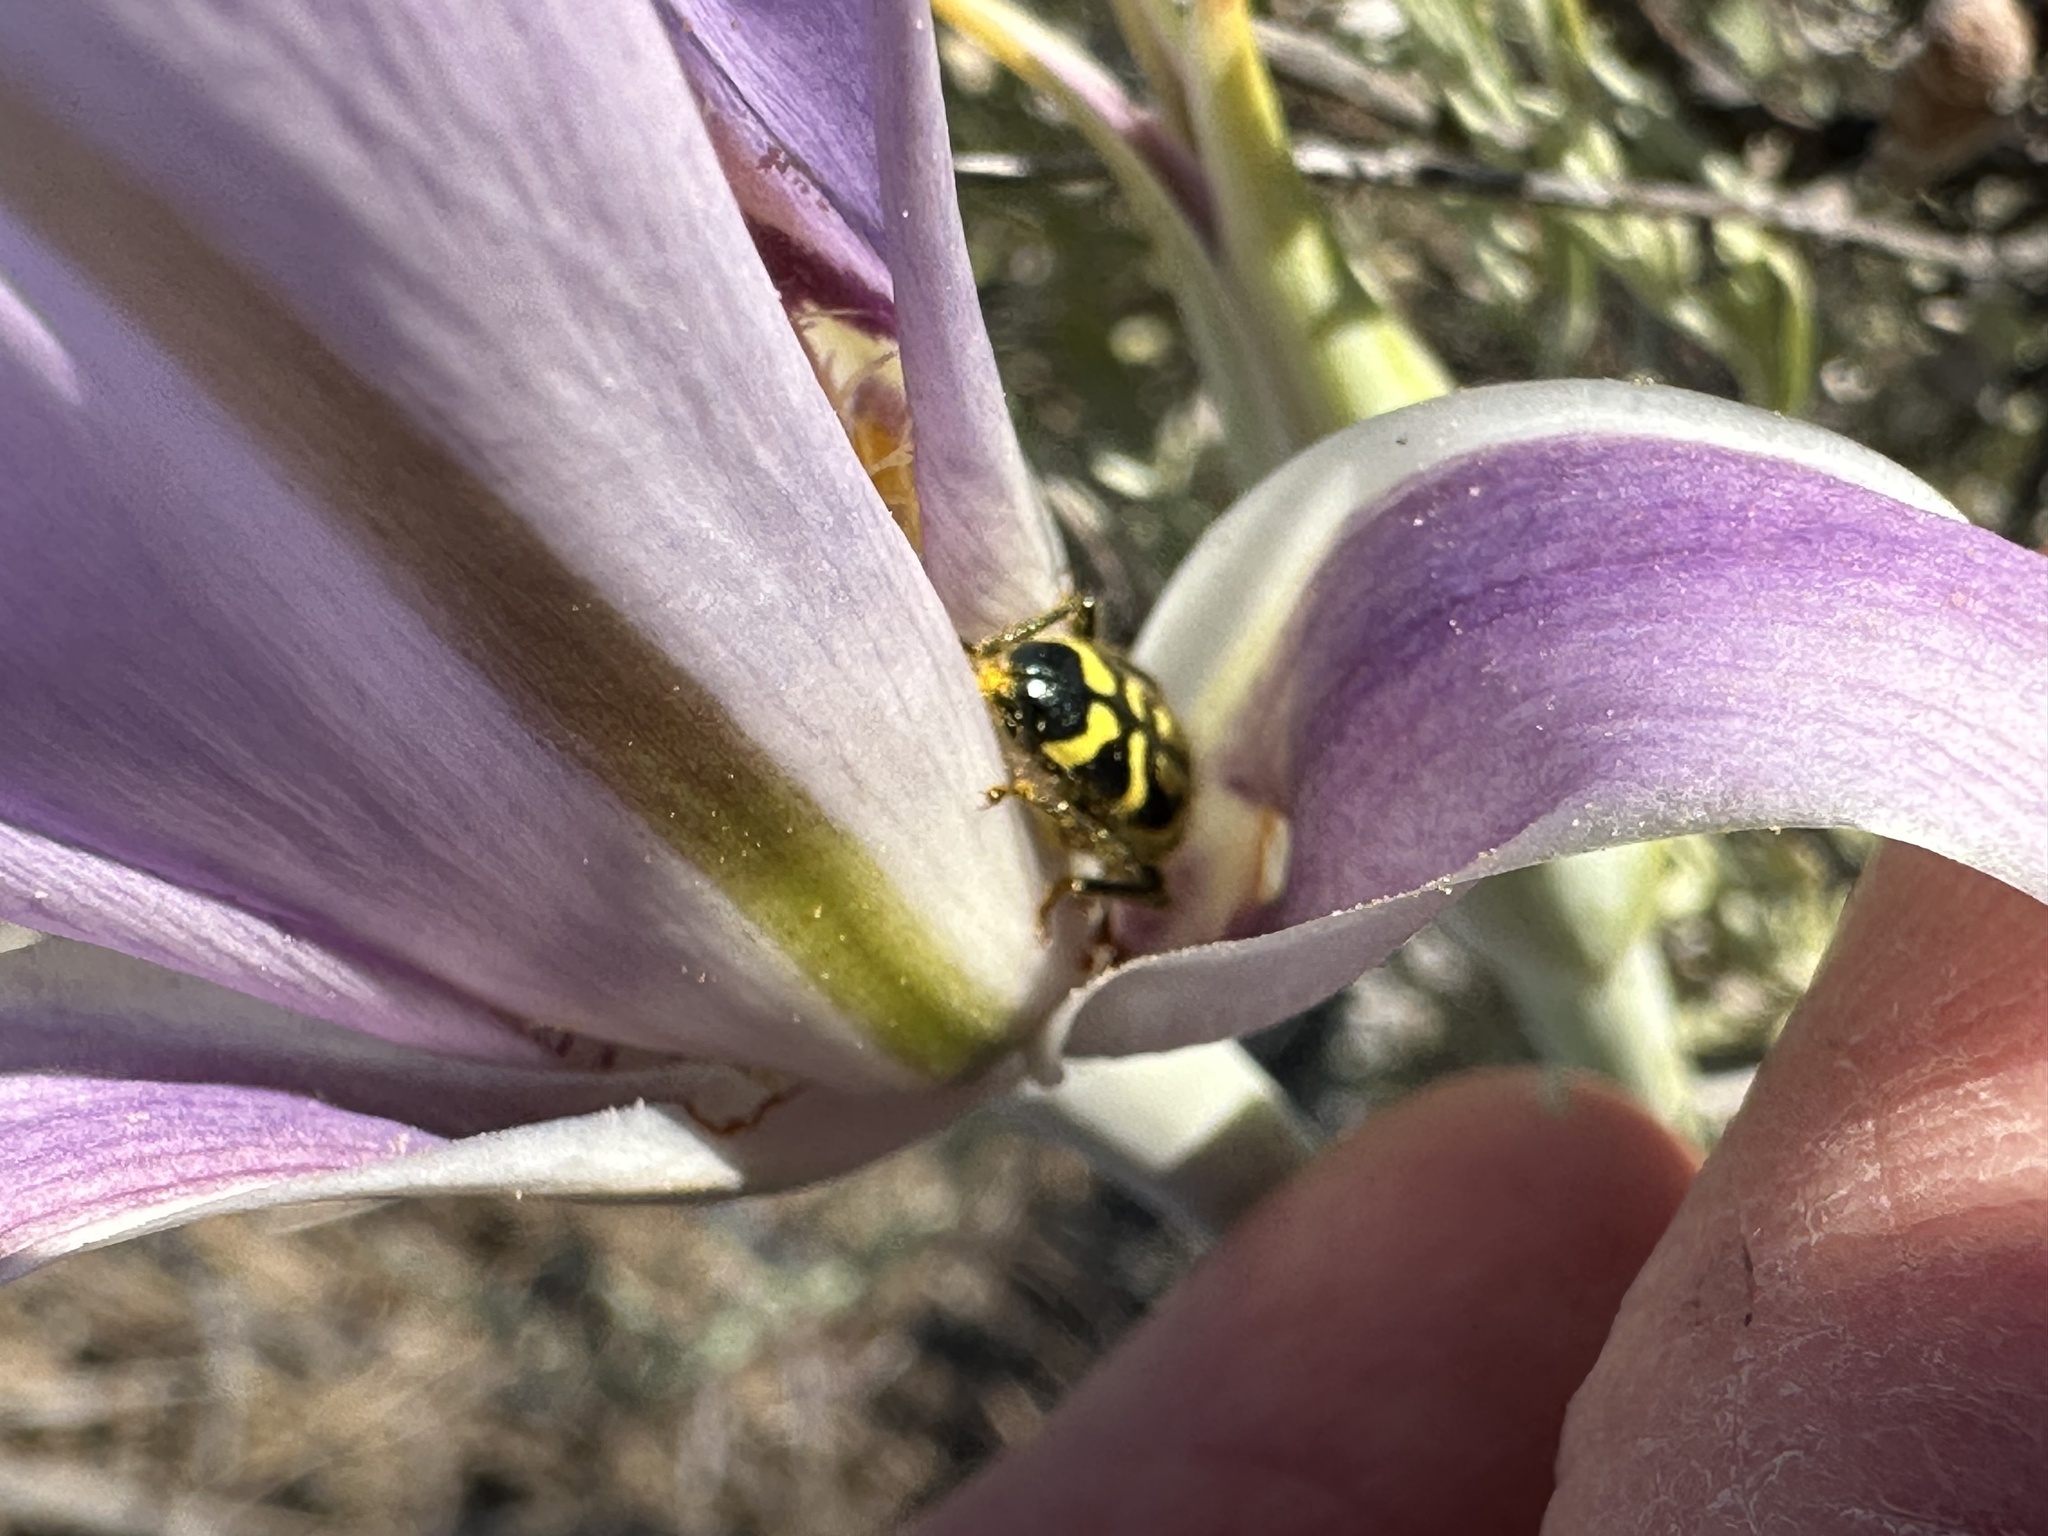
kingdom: Plantae
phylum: Tracheophyta
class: Liliopsida
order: Liliales
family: Liliaceae
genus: Calochortus
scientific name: Calochortus macrocarpus
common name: Green-band mariposa lily
